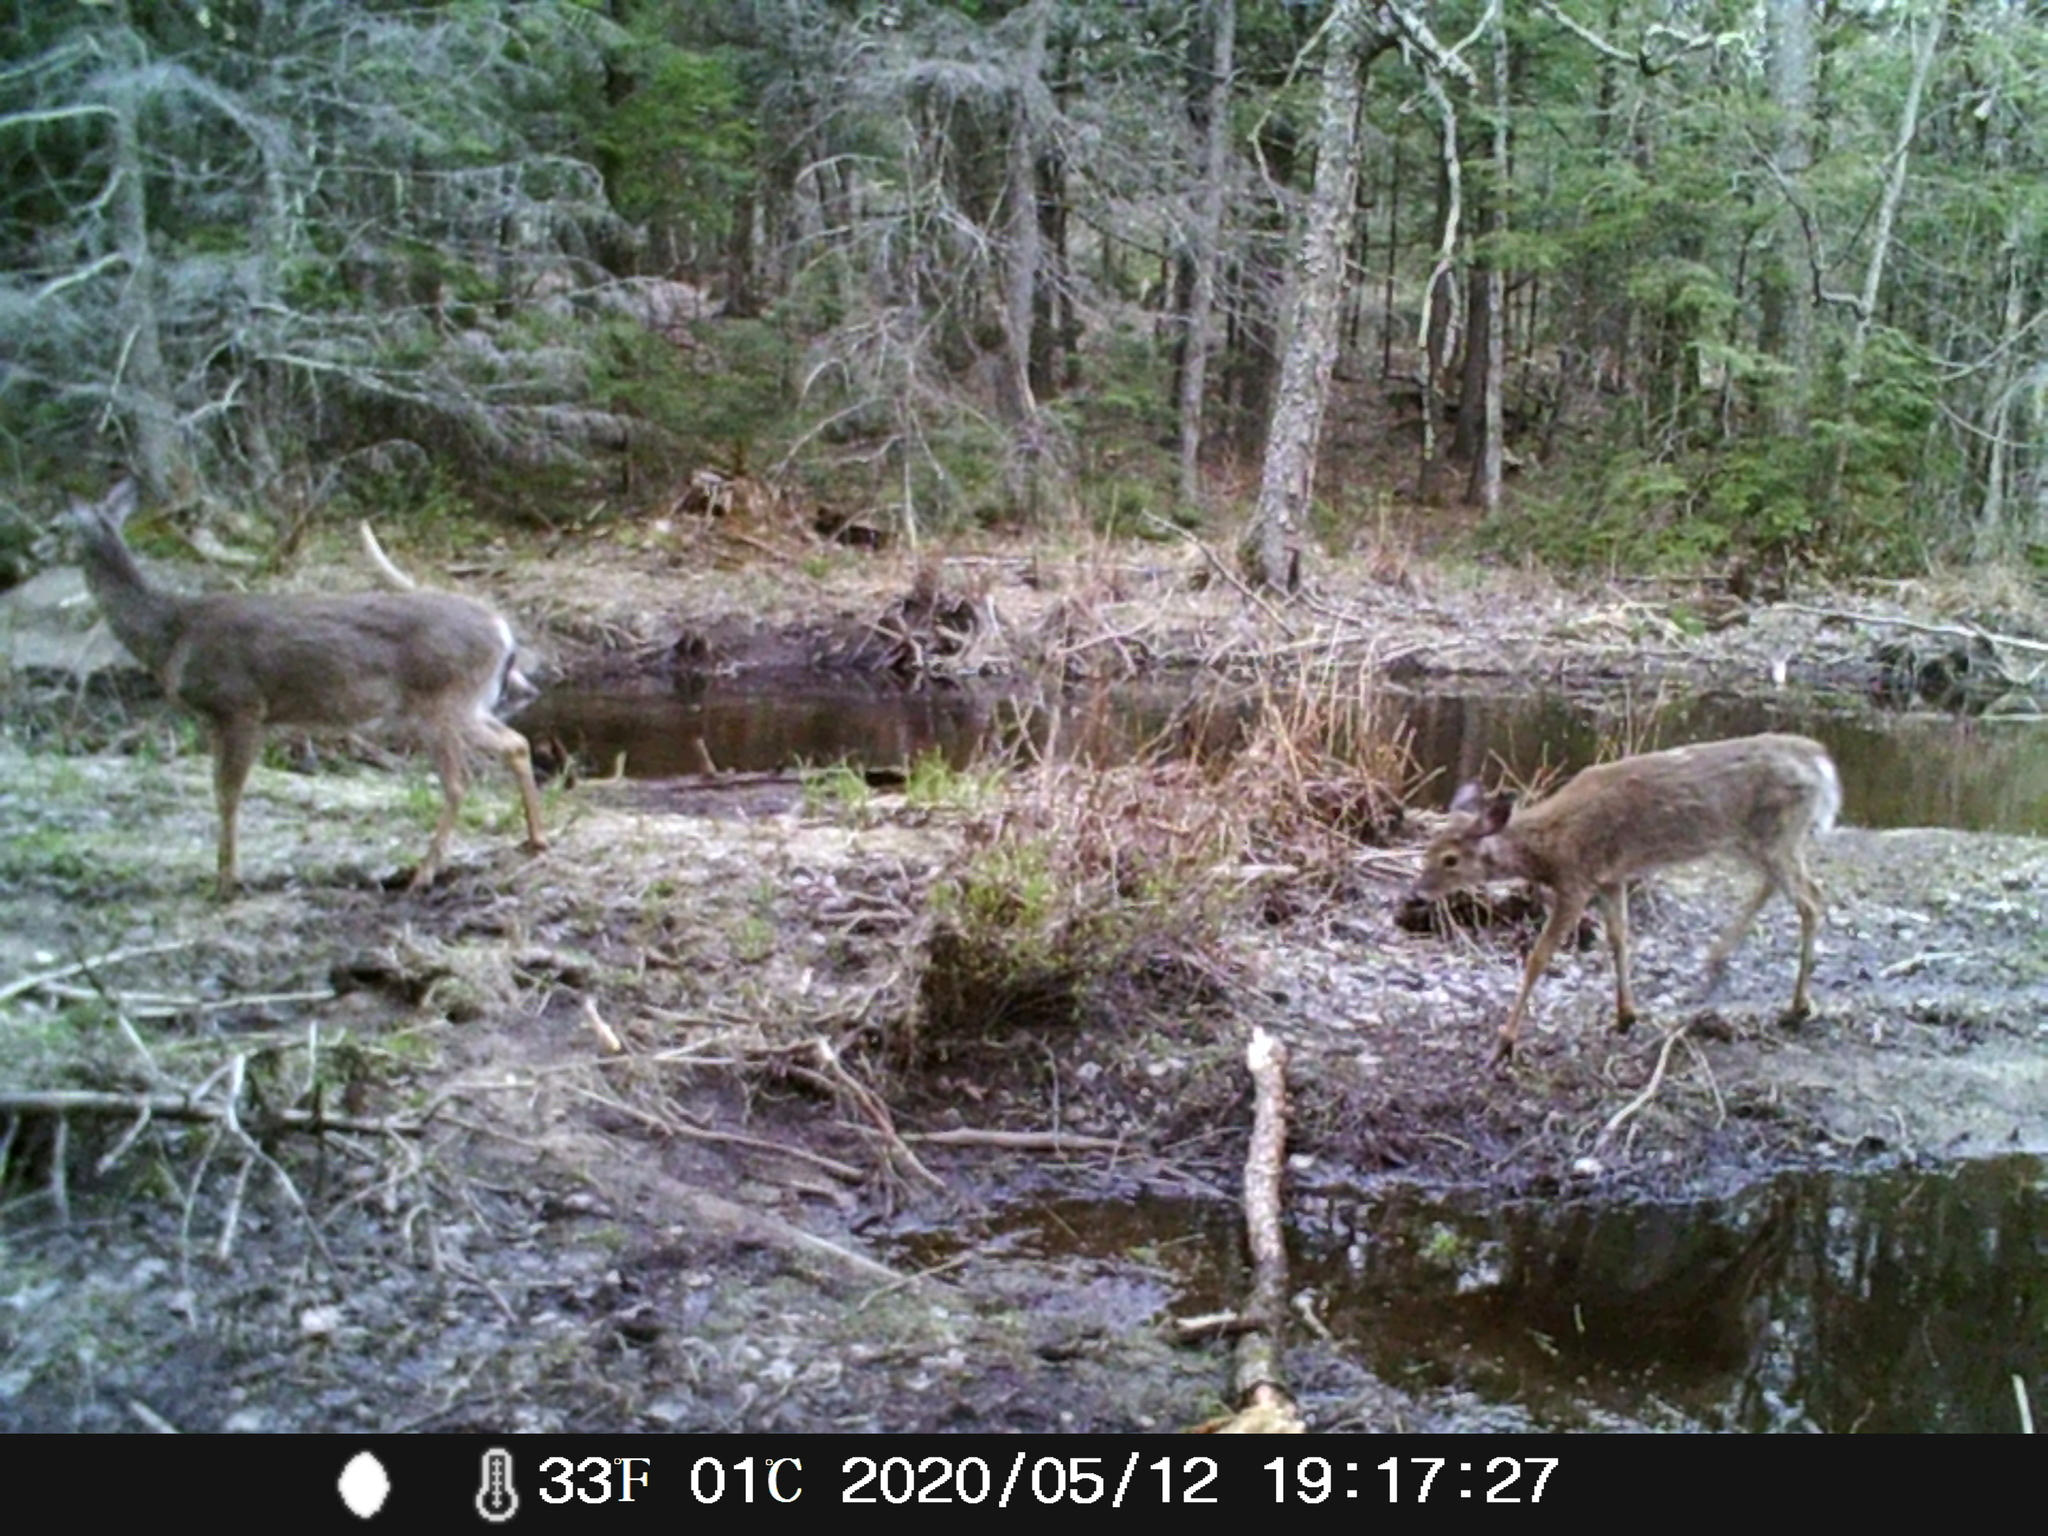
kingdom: Animalia
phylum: Chordata
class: Mammalia
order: Artiodactyla
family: Cervidae
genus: Odocoileus
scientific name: Odocoileus virginianus
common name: White-tailed deer
